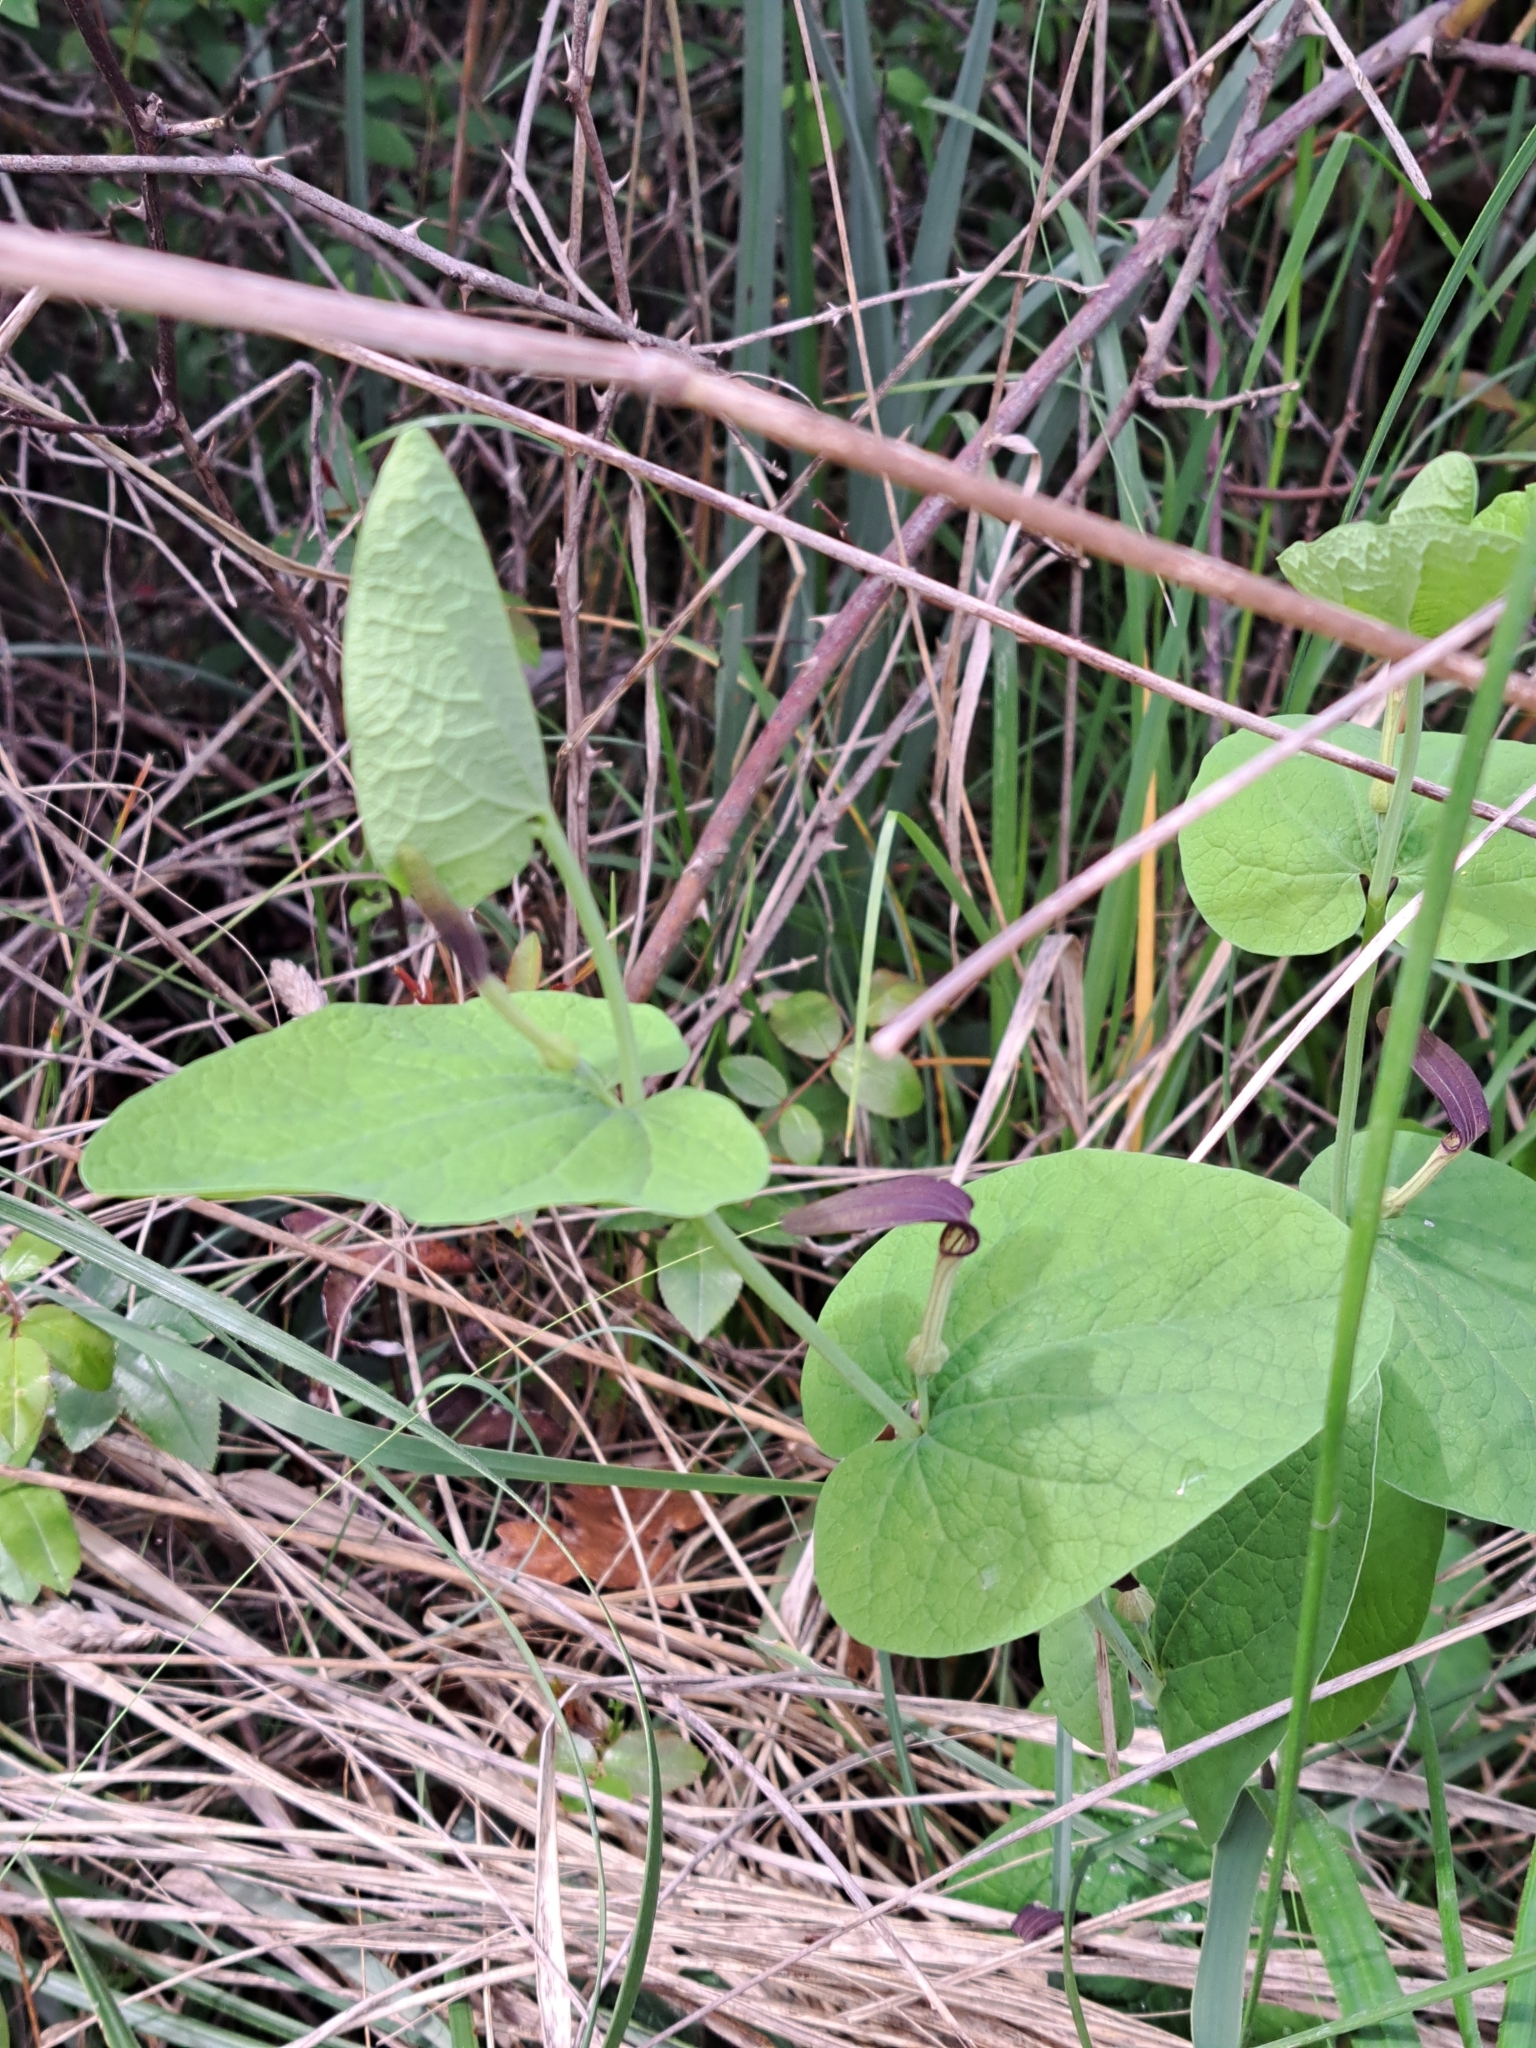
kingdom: Plantae
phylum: Tracheophyta
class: Magnoliopsida
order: Piperales
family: Aristolochiaceae
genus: Aristolochia
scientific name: Aristolochia rotunda
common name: Smearwort
